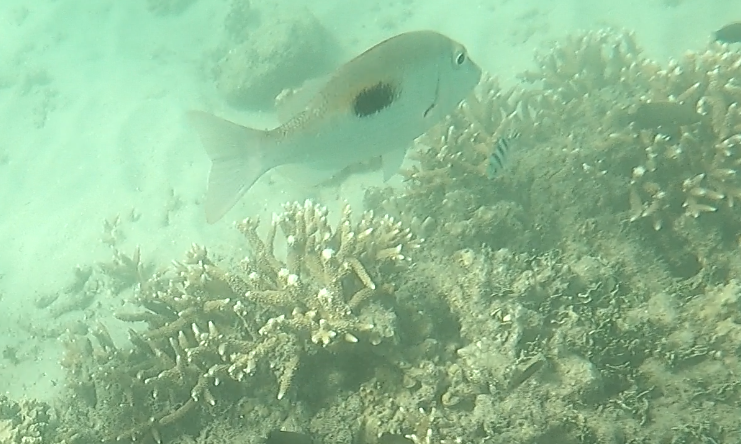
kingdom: Animalia
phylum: Chordata
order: Perciformes
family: Lethrinidae
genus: Lethrinus
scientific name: Lethrinus harak
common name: Blackspot emperor
